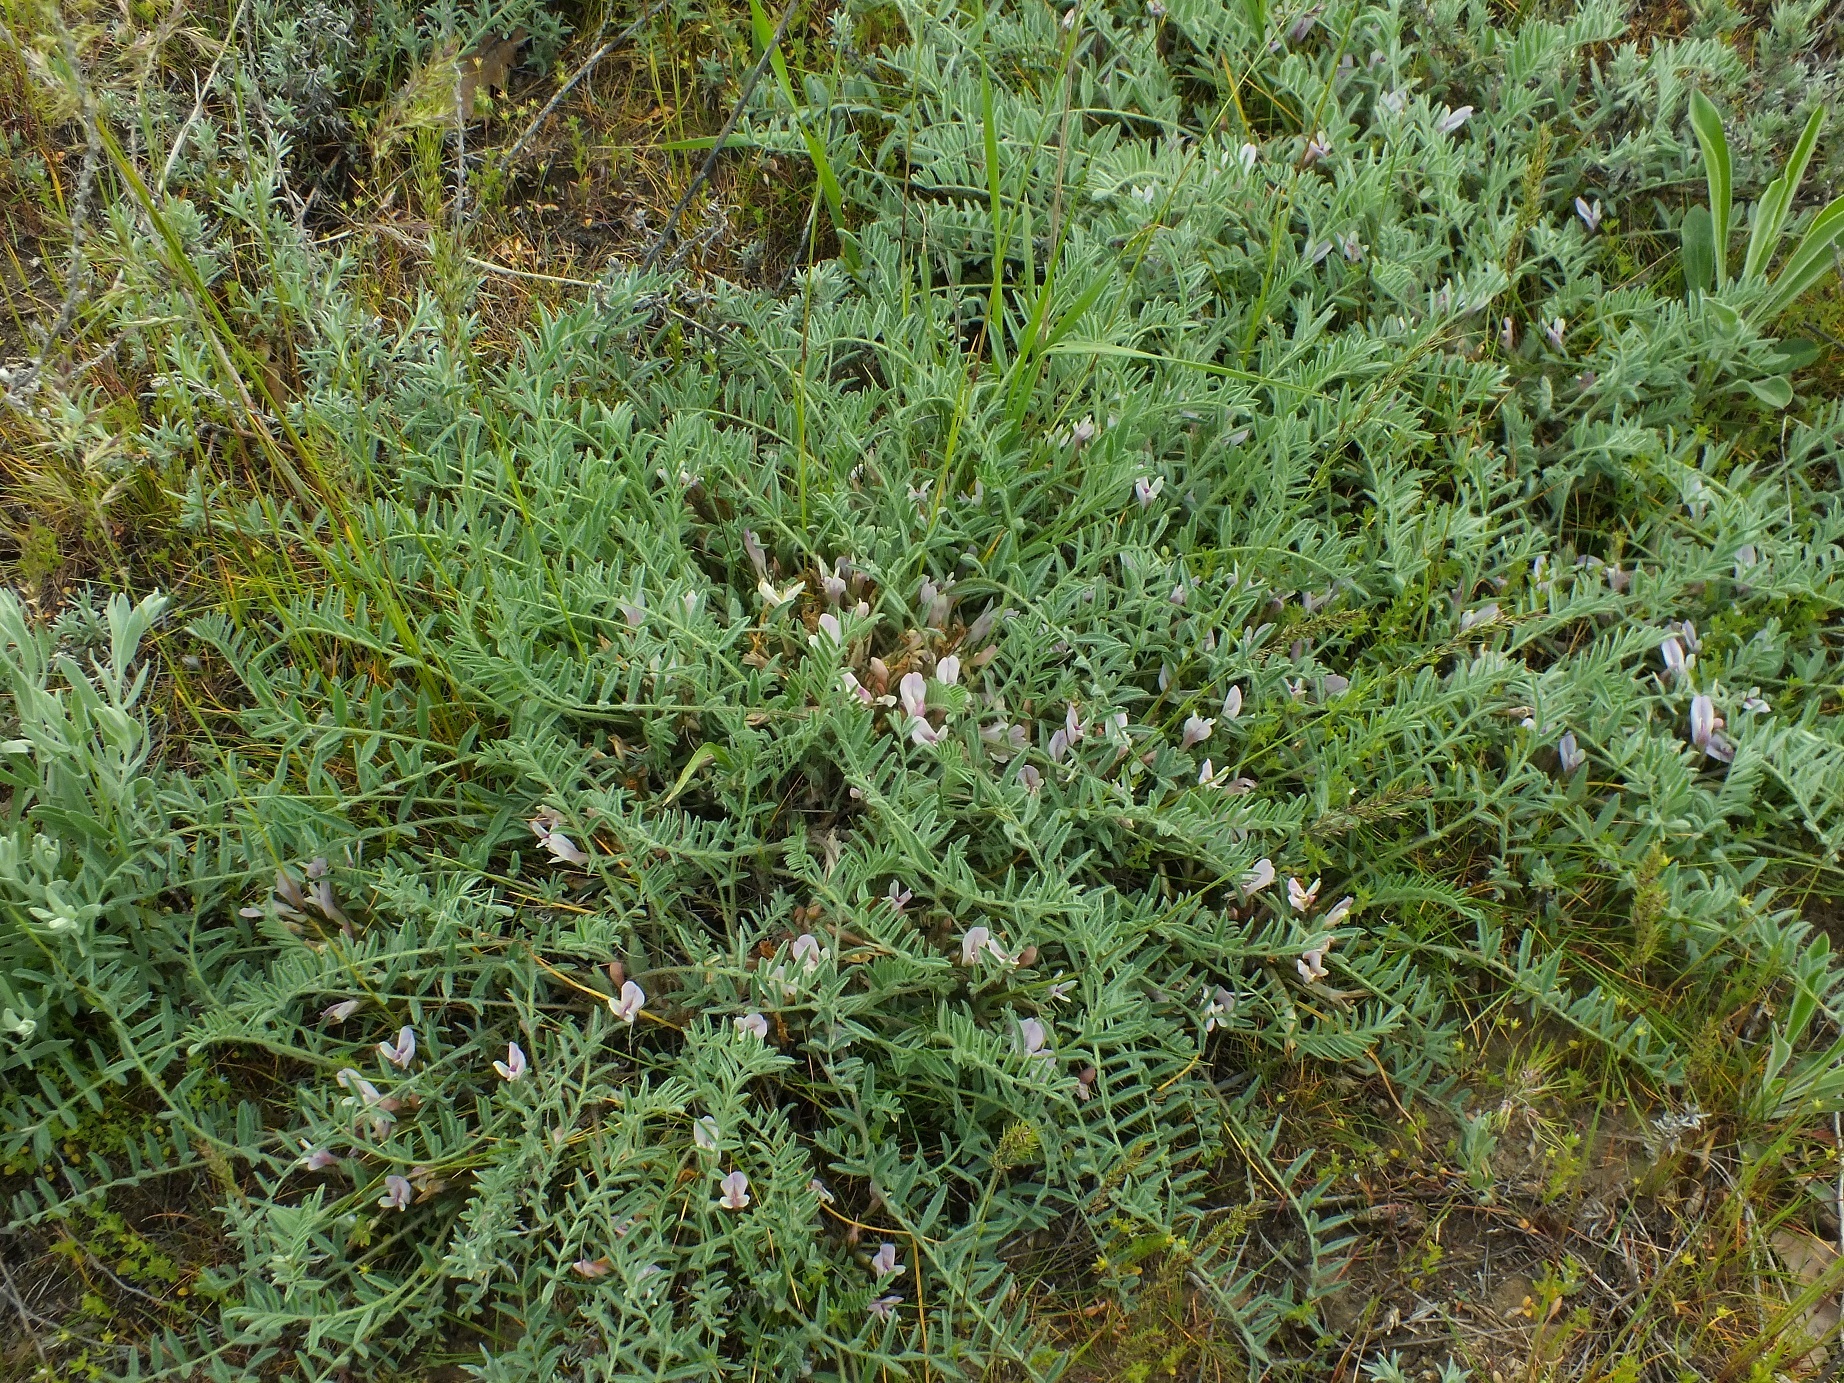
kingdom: Plantae
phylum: Tracheophyta
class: Magnoliopsida
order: Fabales
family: Fabaceae
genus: Astragalus
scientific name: Astragalus testiculatus
